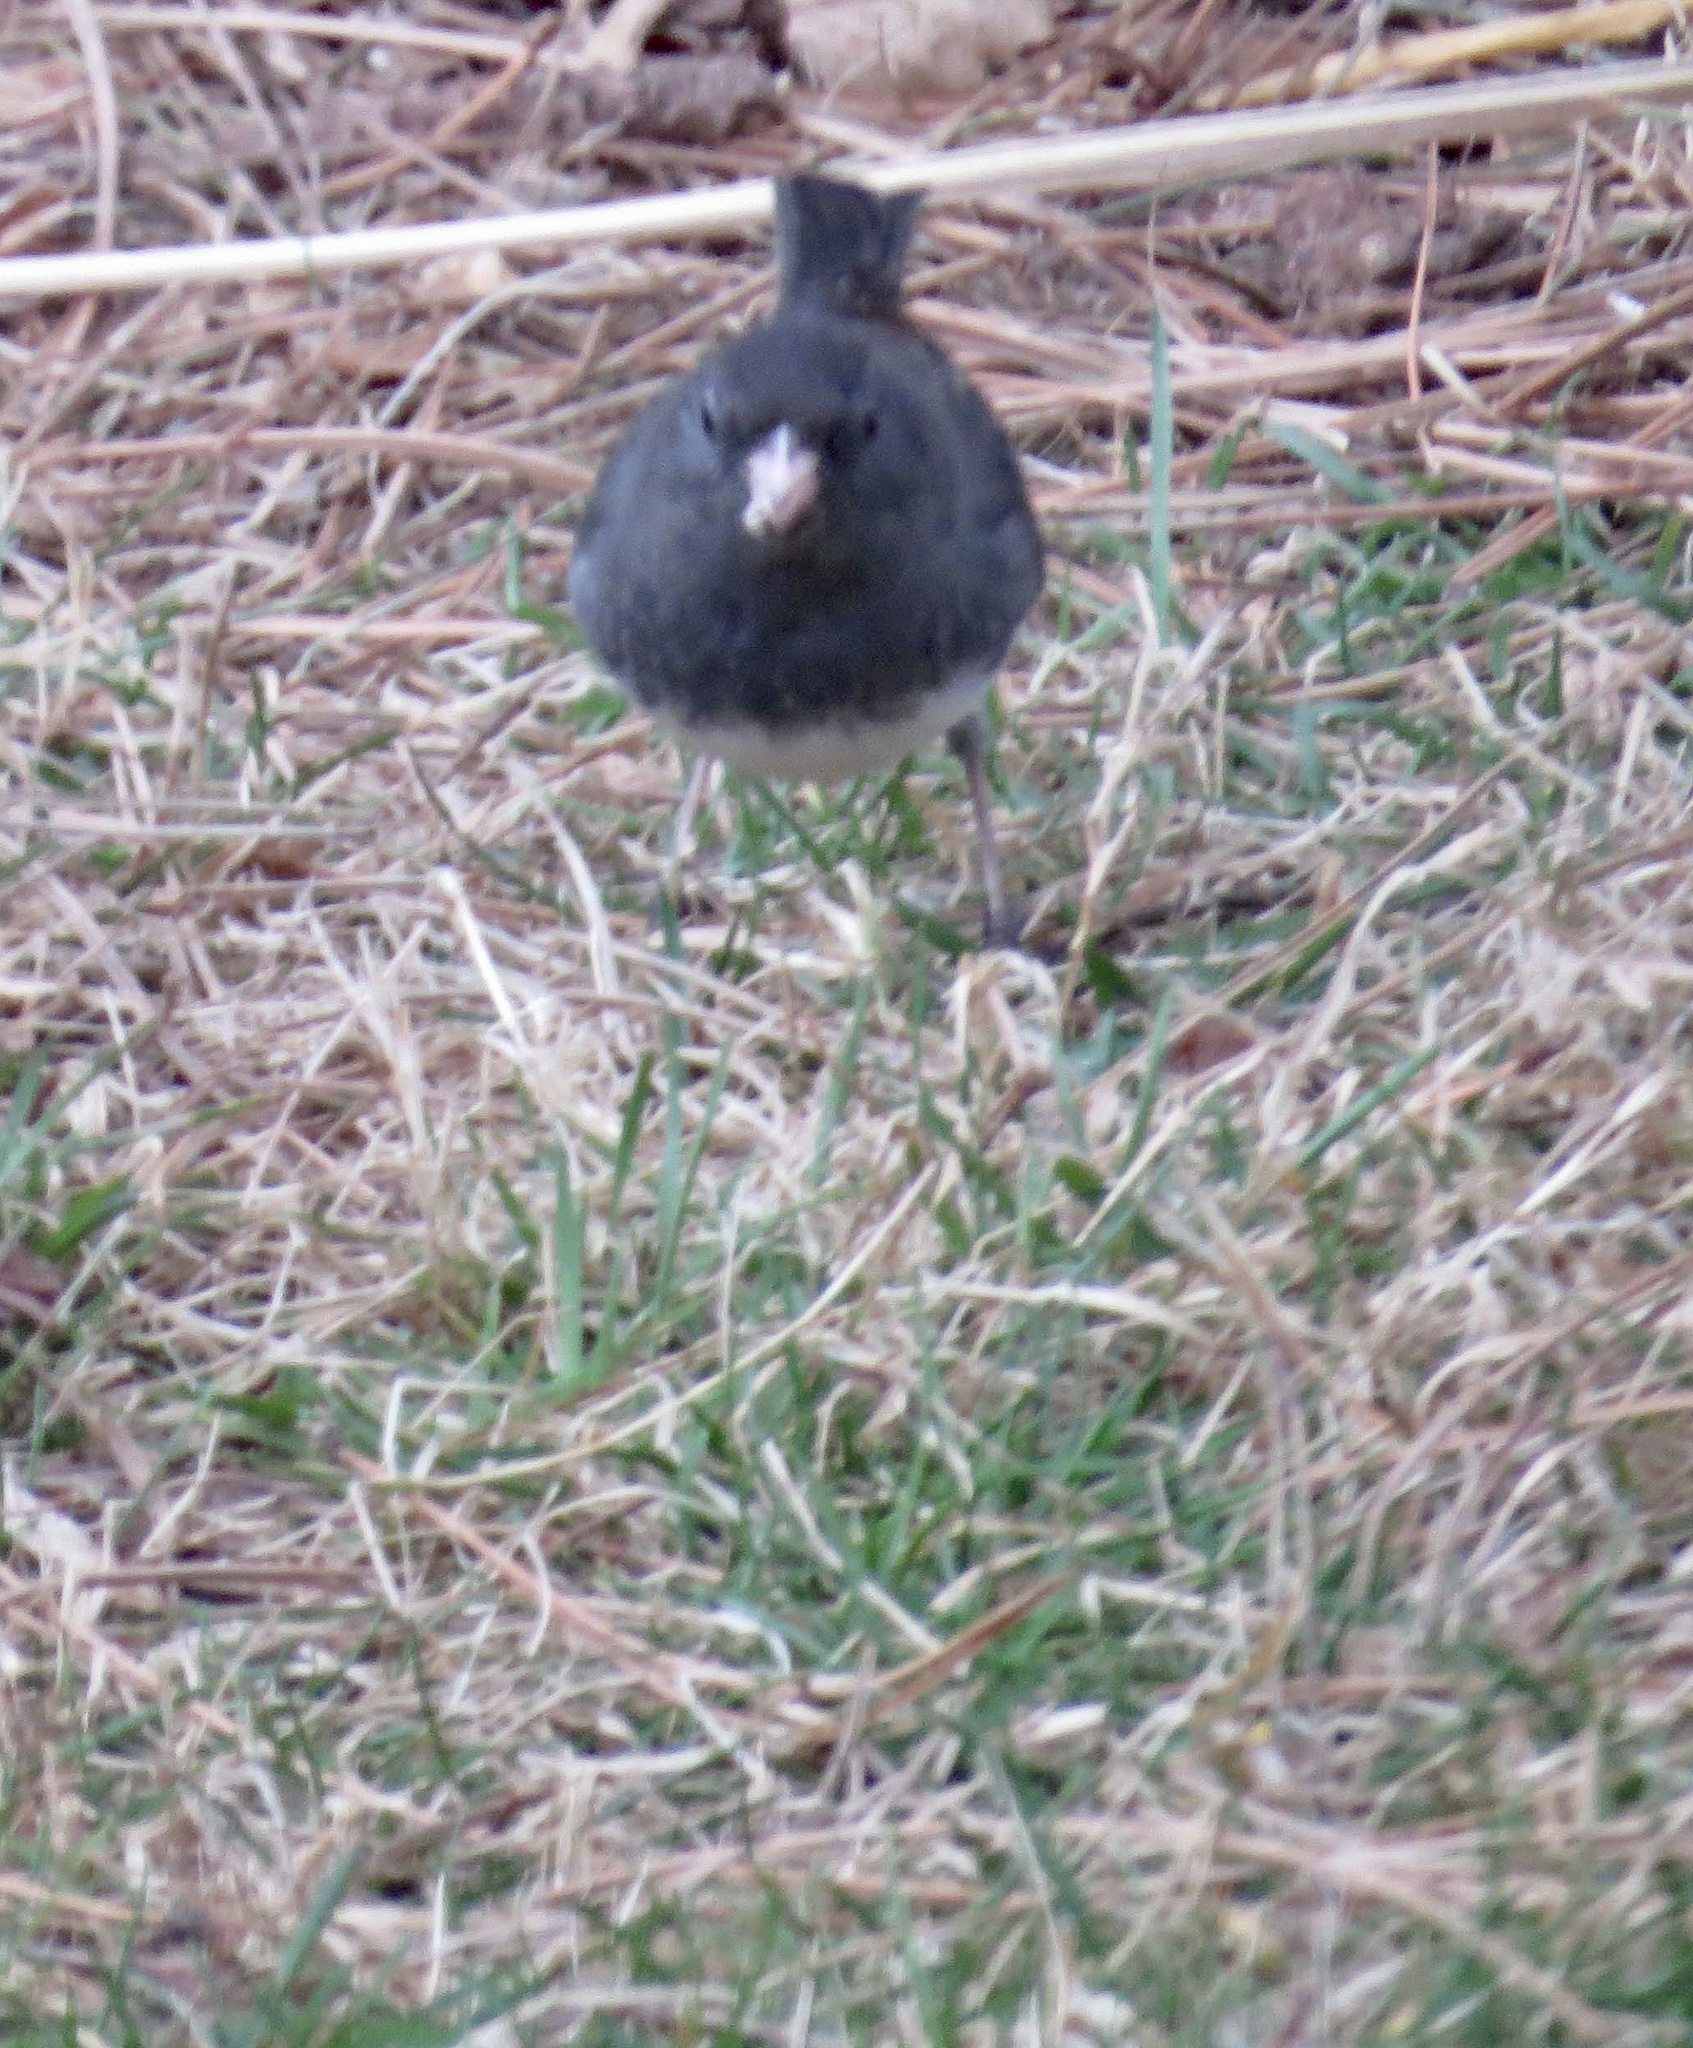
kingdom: Animalia
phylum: Chordata
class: Aves
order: Passeriformes
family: Passerellidae
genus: Junco
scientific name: Junco hyemalis
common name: Dark-eyed junco
